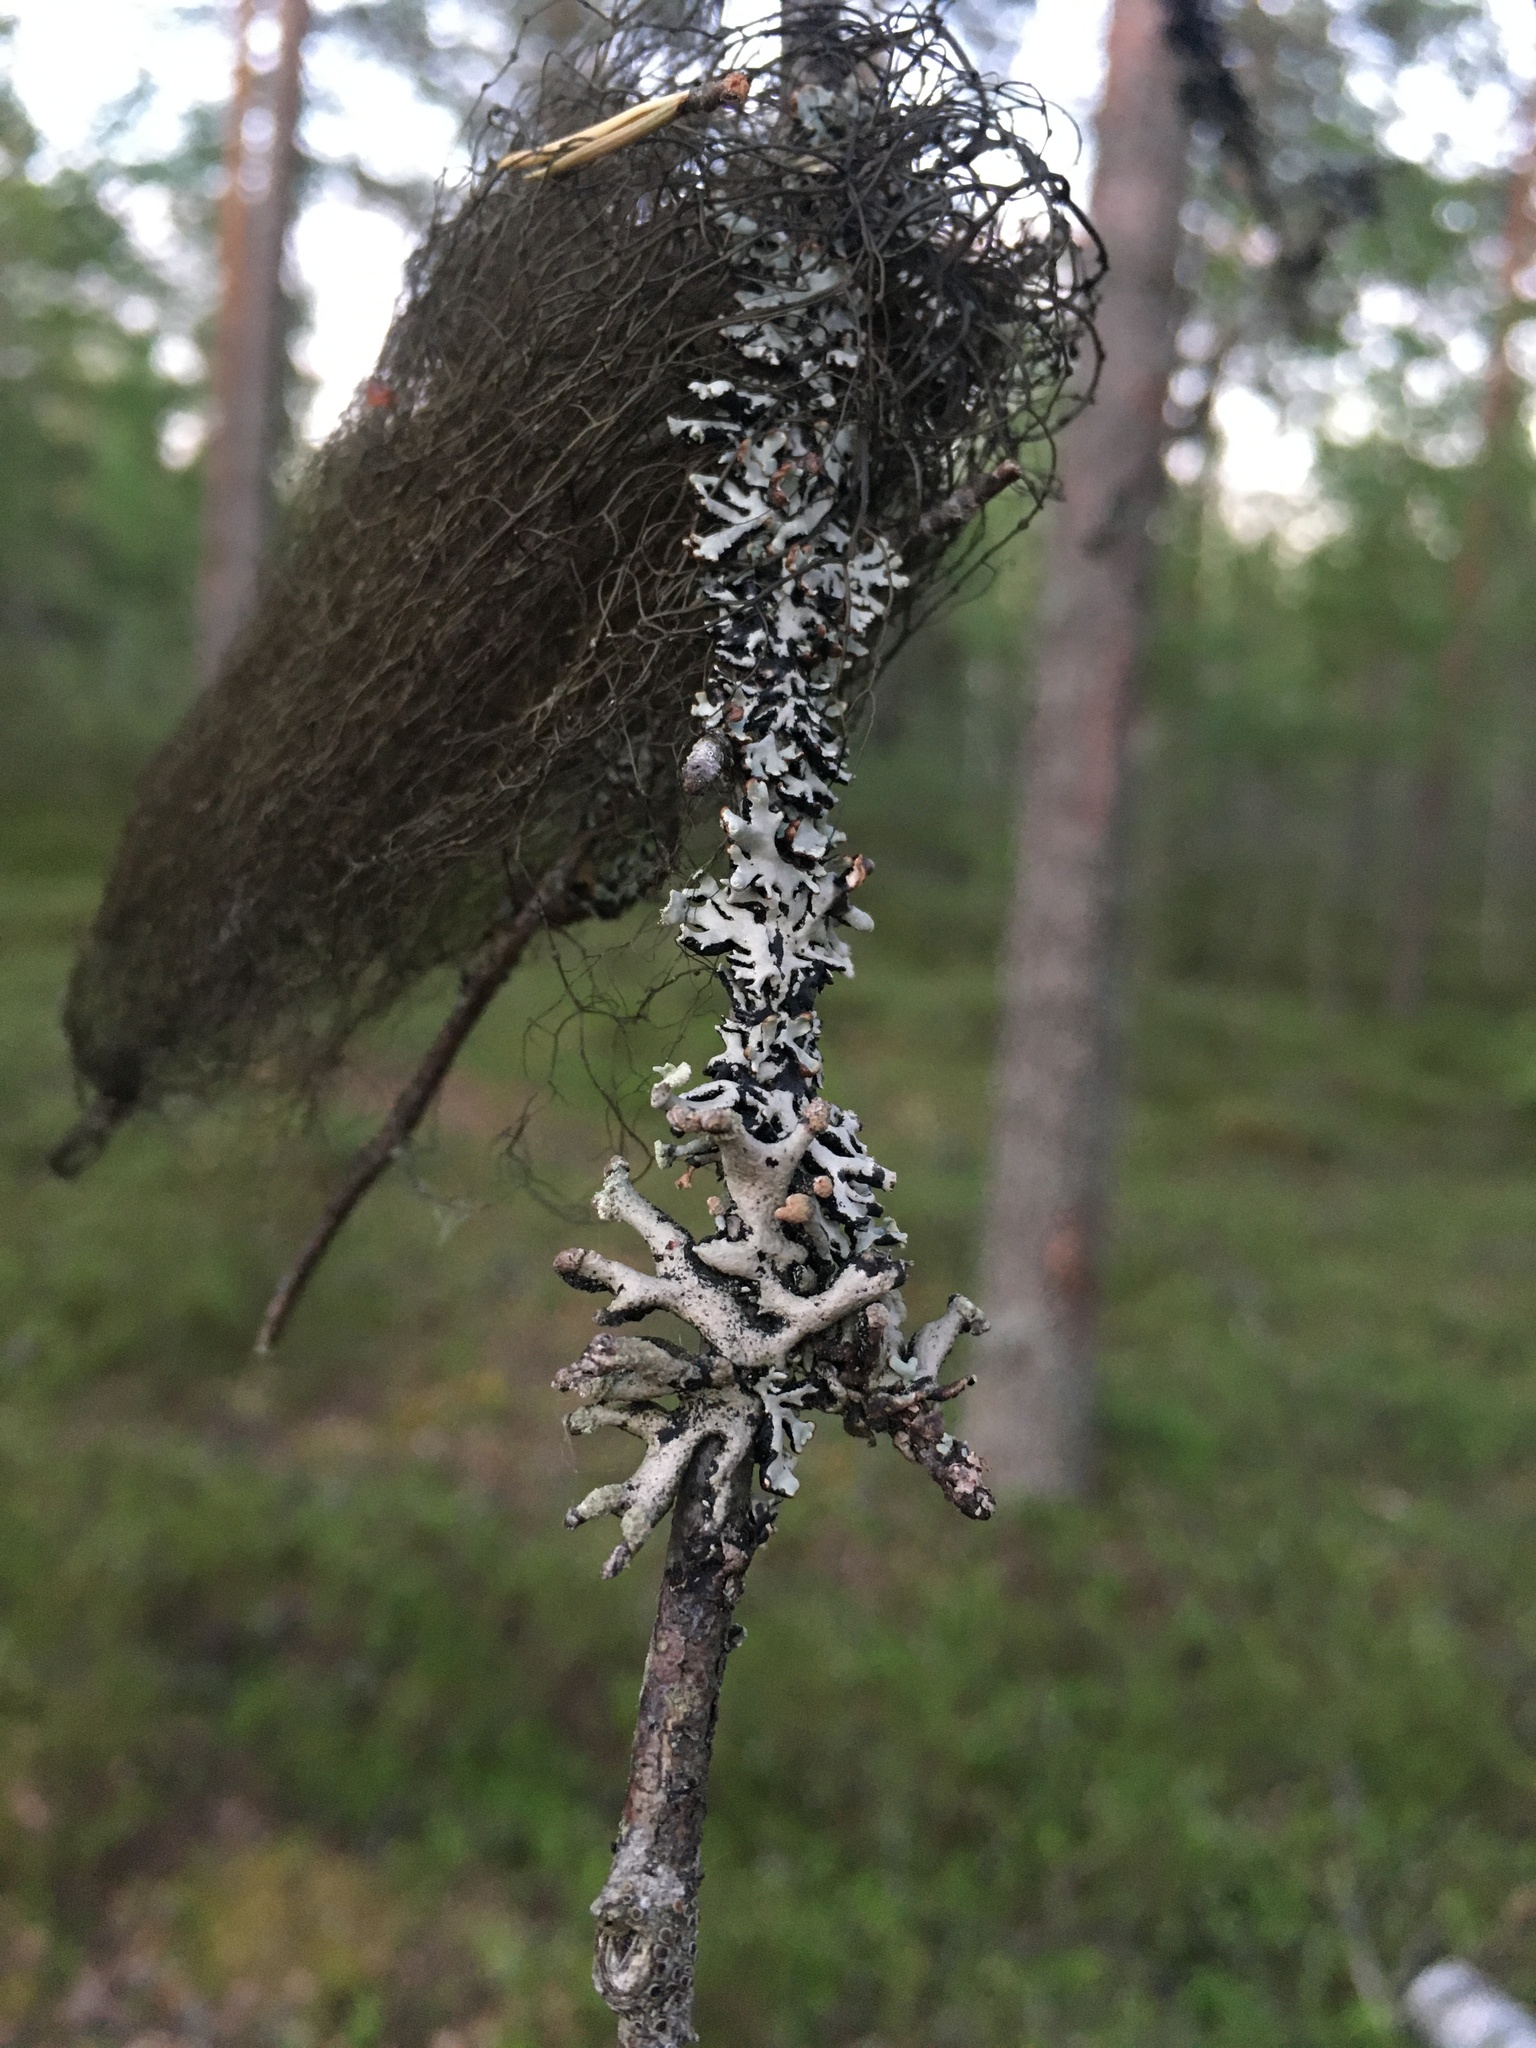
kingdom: Fungi
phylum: Ascomycota
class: Lecanoromycetes
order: Lecanorales
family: Parmeliaceae
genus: Hypogymnia
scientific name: Hypogymnia tubulosa
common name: Powder-headed tube lichen
